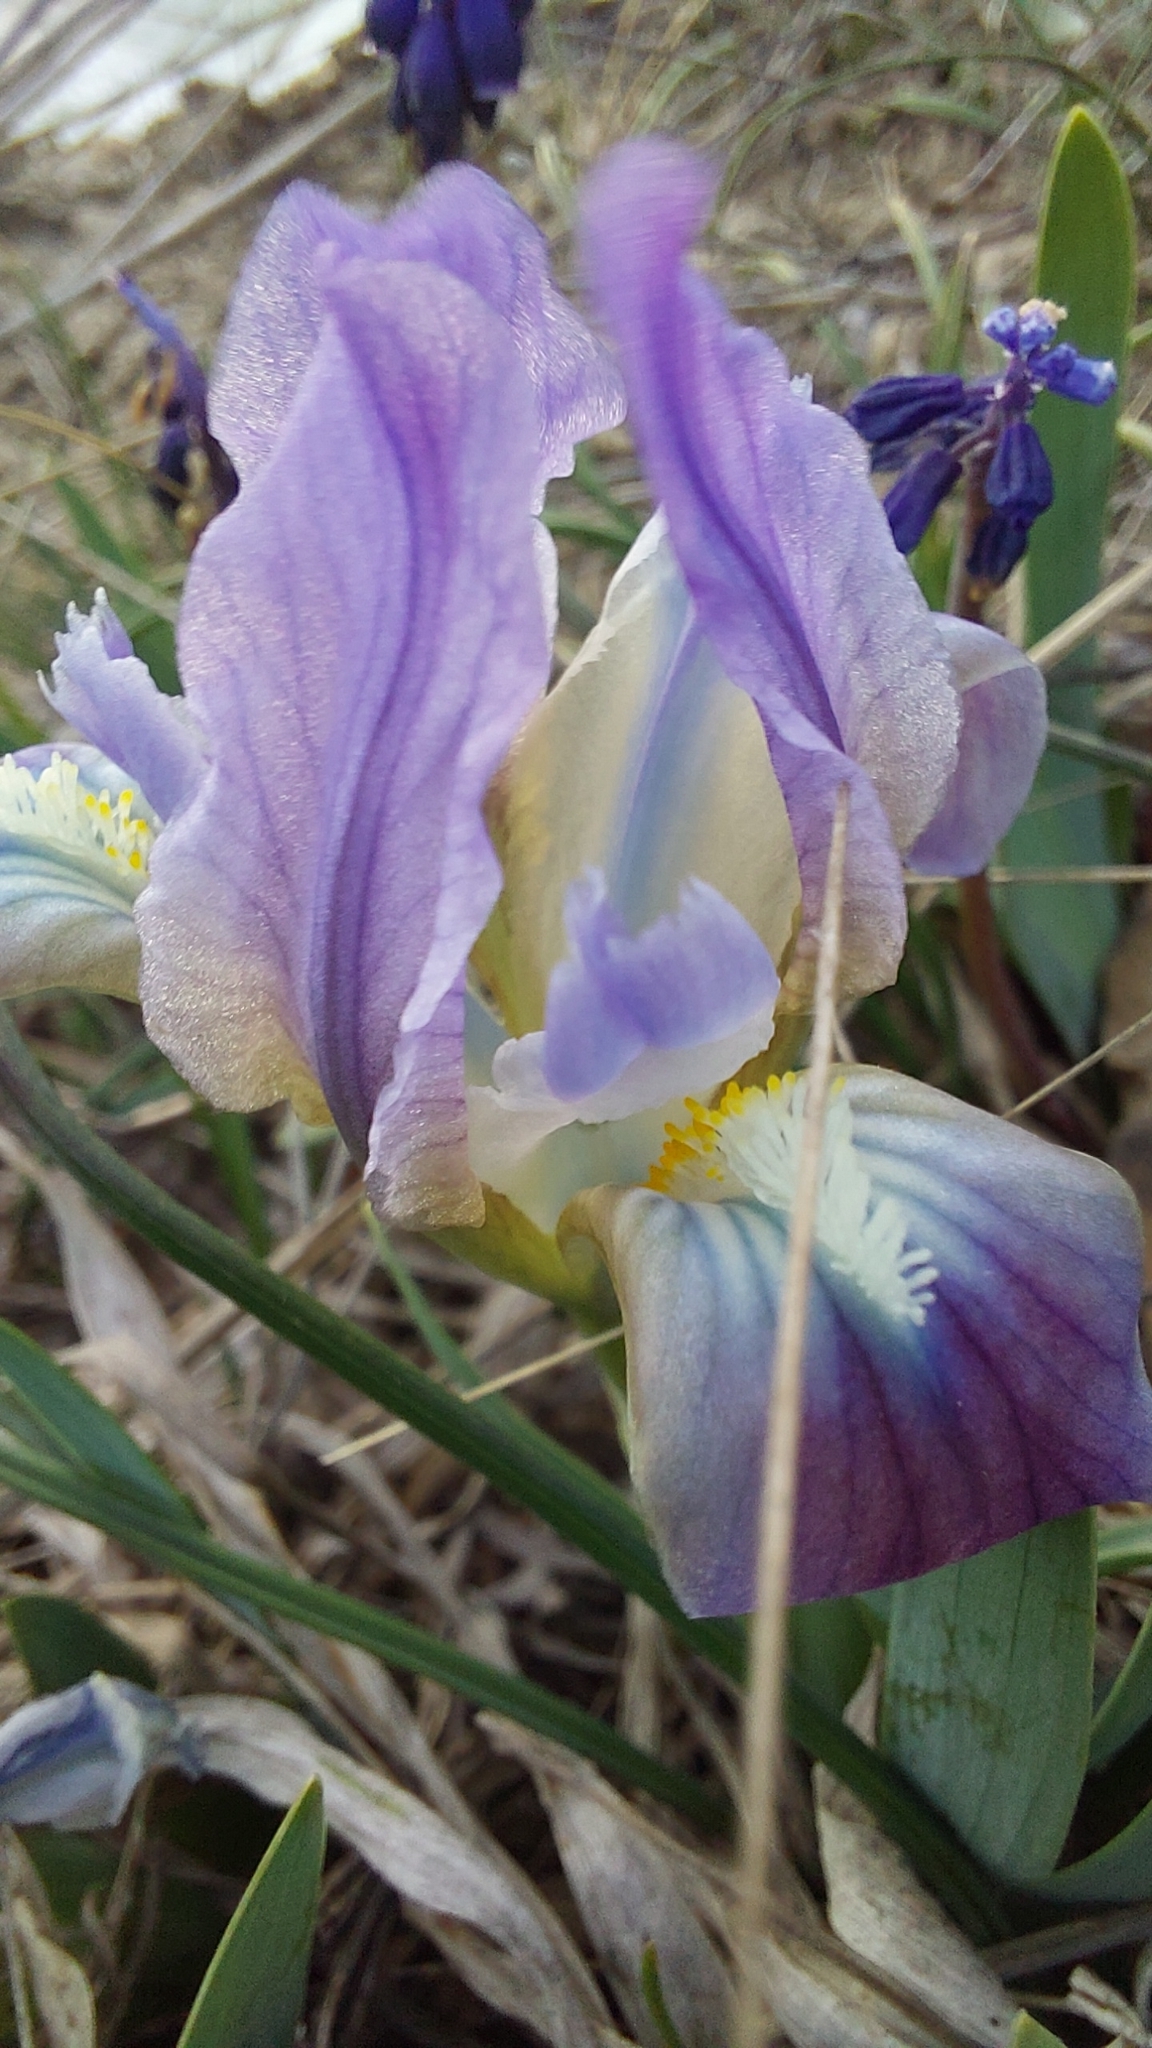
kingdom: Plantae
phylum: Tracheophyta
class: Liliopsida
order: Asparagales
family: Iridaceae
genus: Iris
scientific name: Iris pumila
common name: Dwarf iris
